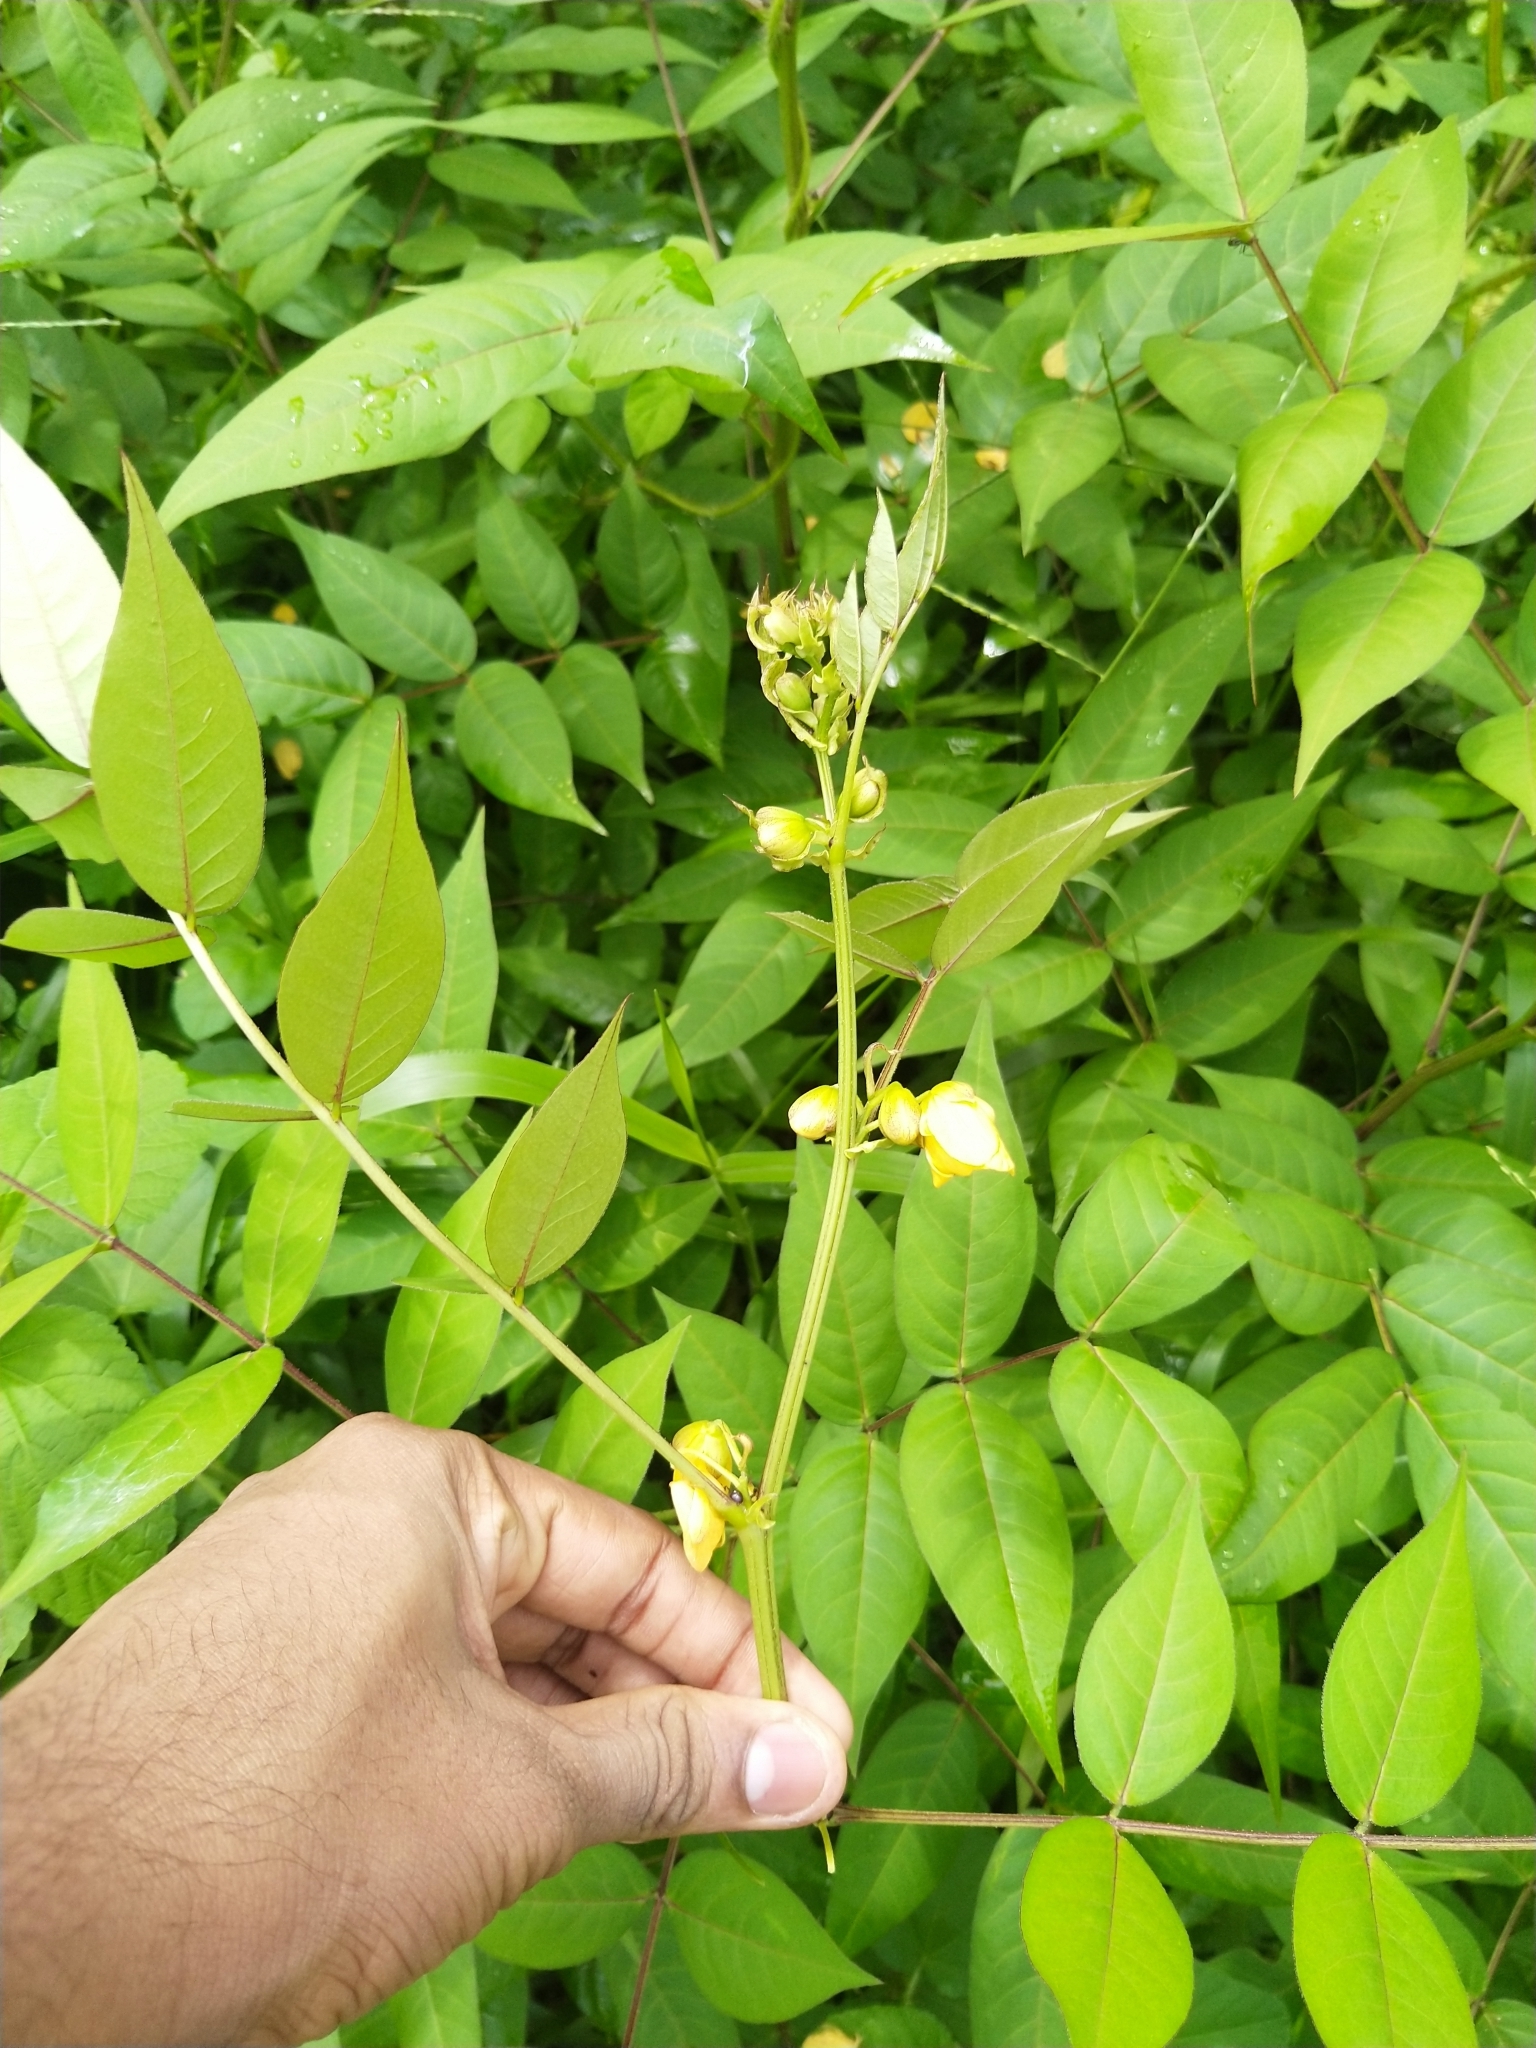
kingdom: Plantae
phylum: Tracheophyta
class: Magnoliopsida
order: Fabales
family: Fabaceae
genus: Senna
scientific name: Senna occidentalis
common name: Septicweed
